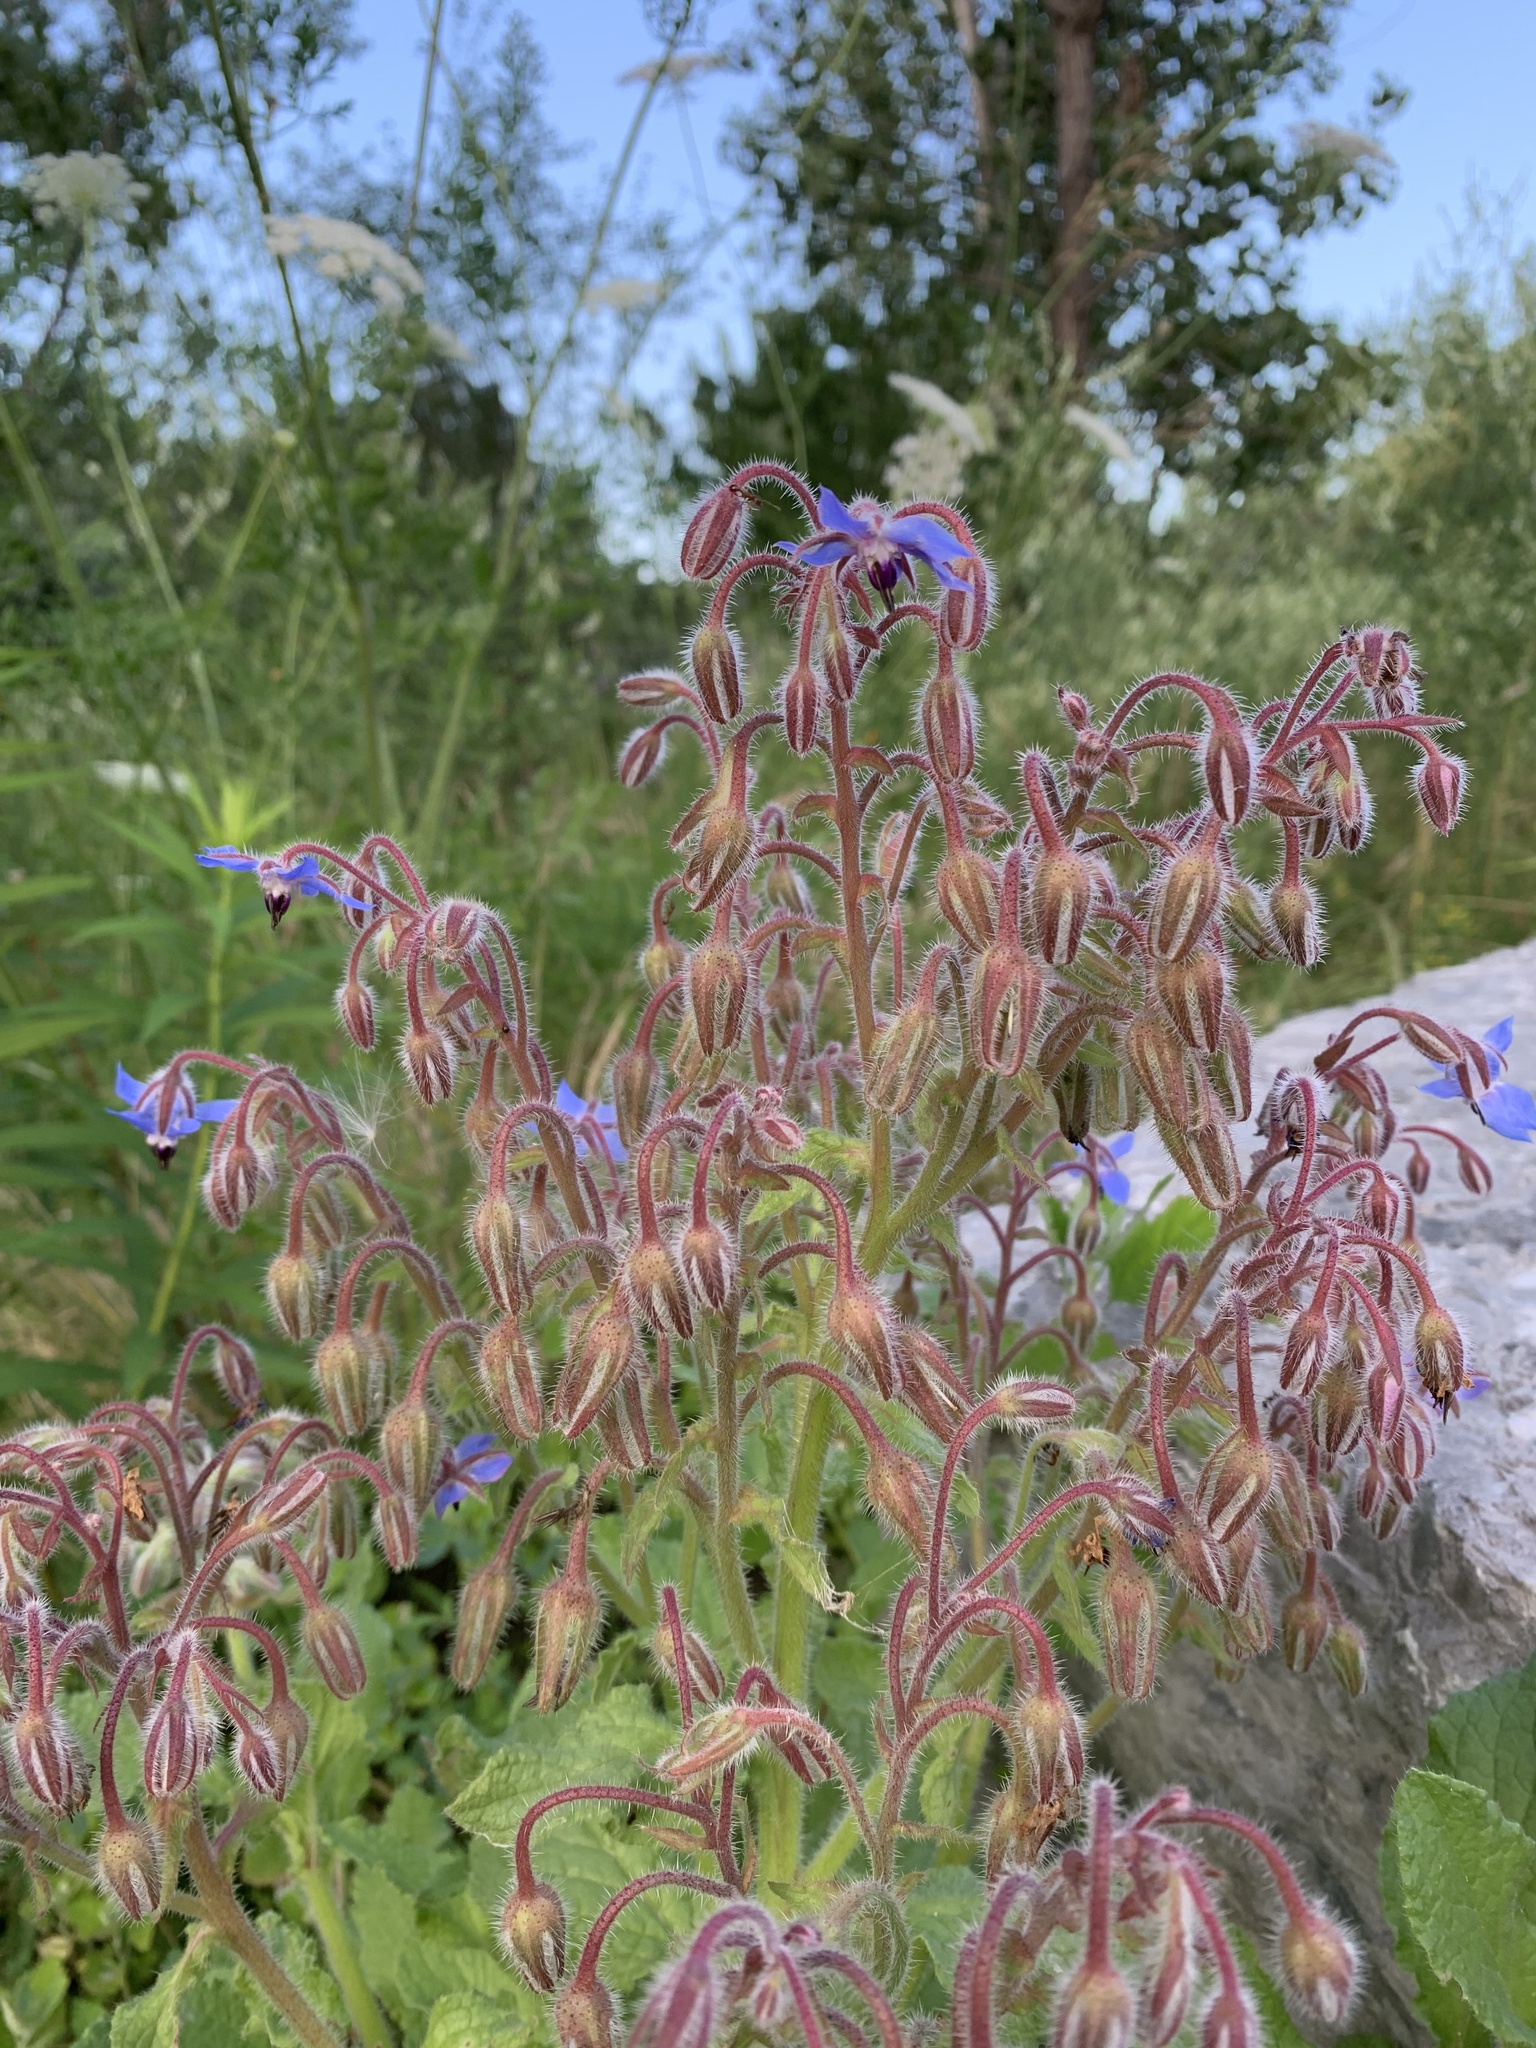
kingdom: Plantae
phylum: Tracheophyta
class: Magnoliopsida
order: Boraginales
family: Boraginaceae
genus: Borago
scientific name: Borago officinalis
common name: Borage
